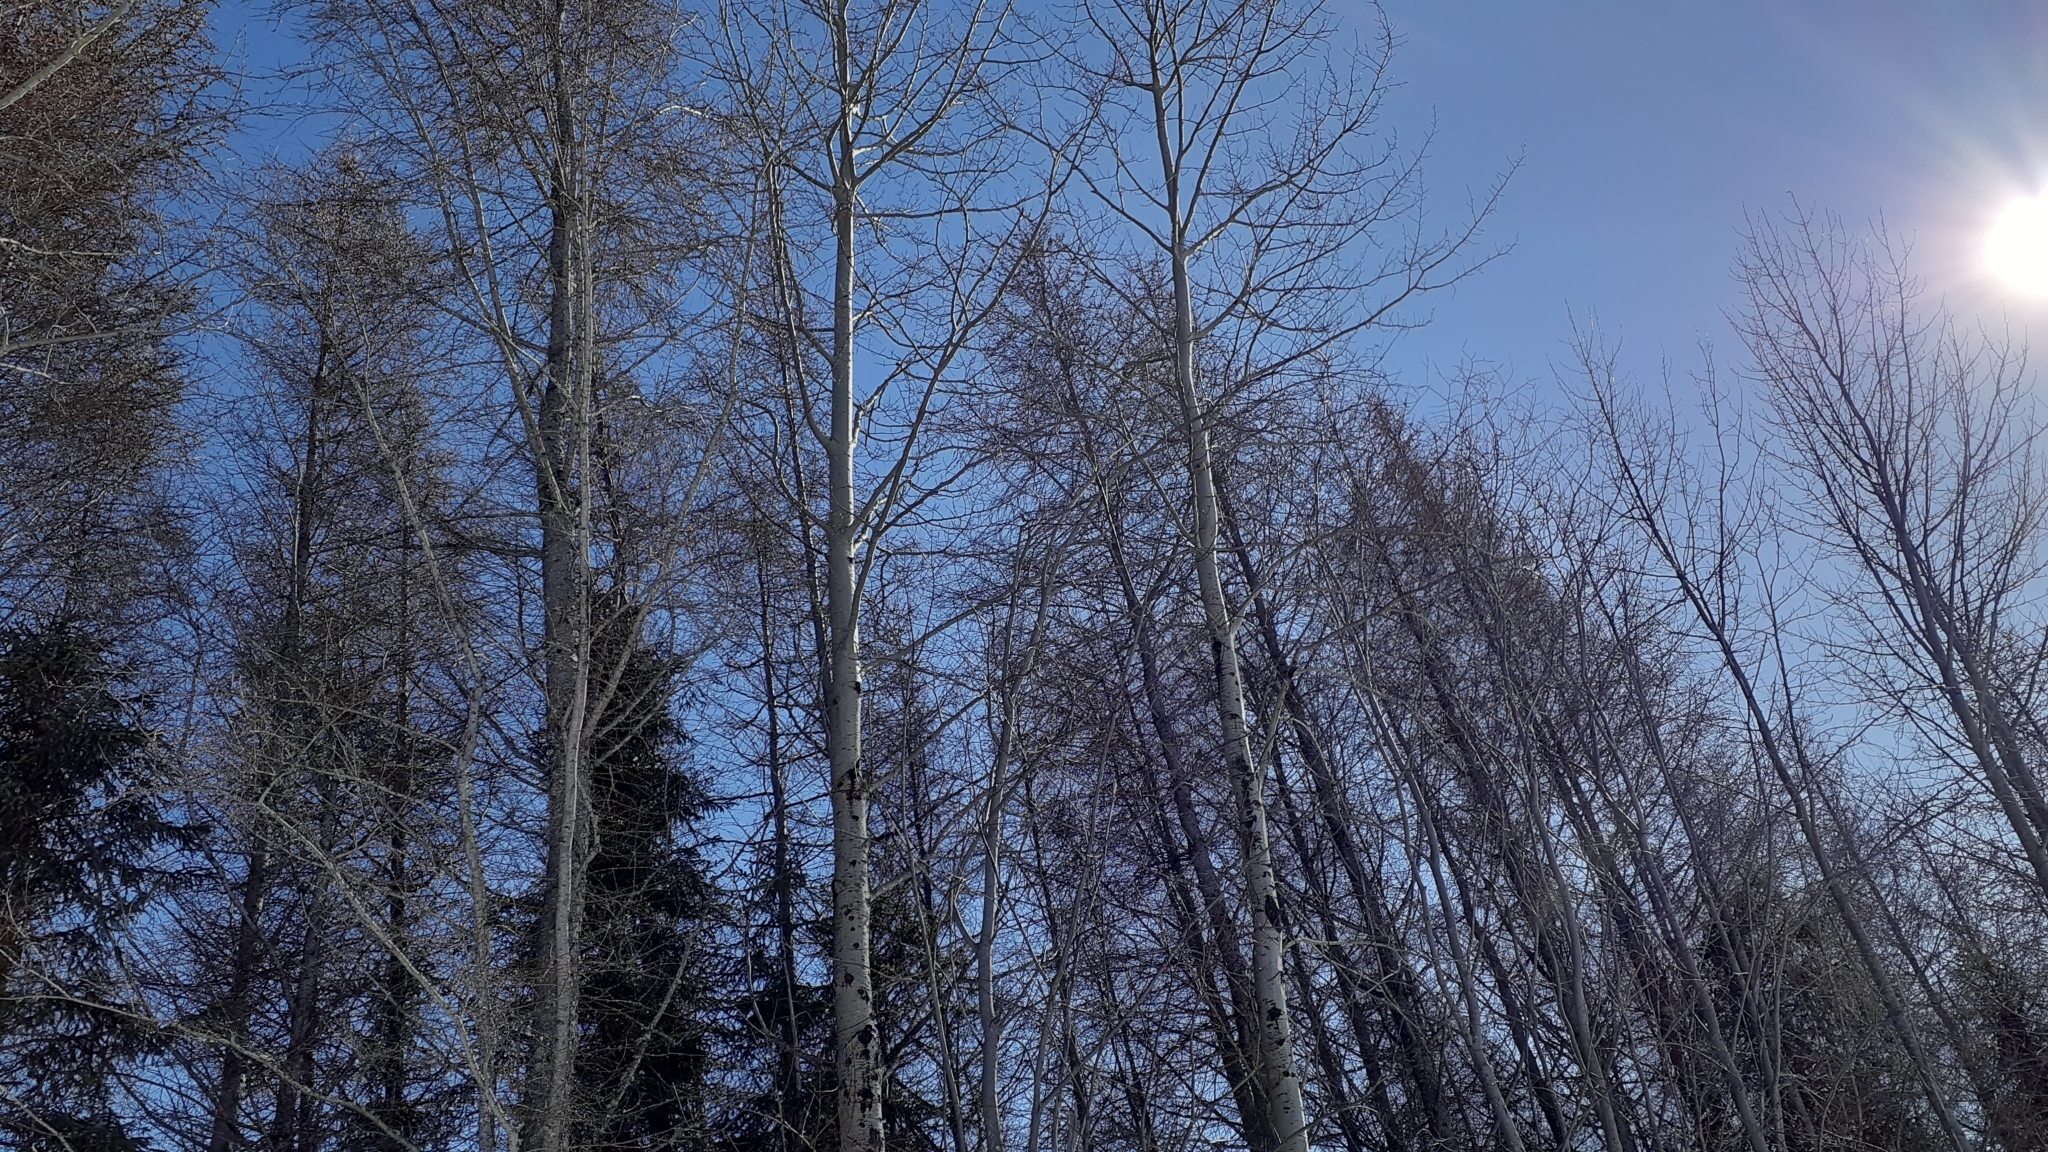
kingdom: Plantae
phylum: Tracheophyta
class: Magnoliopsida
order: Malpighiales
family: Salicaceae
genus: Populus
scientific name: Populus tremuloides
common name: Quaking aspen
